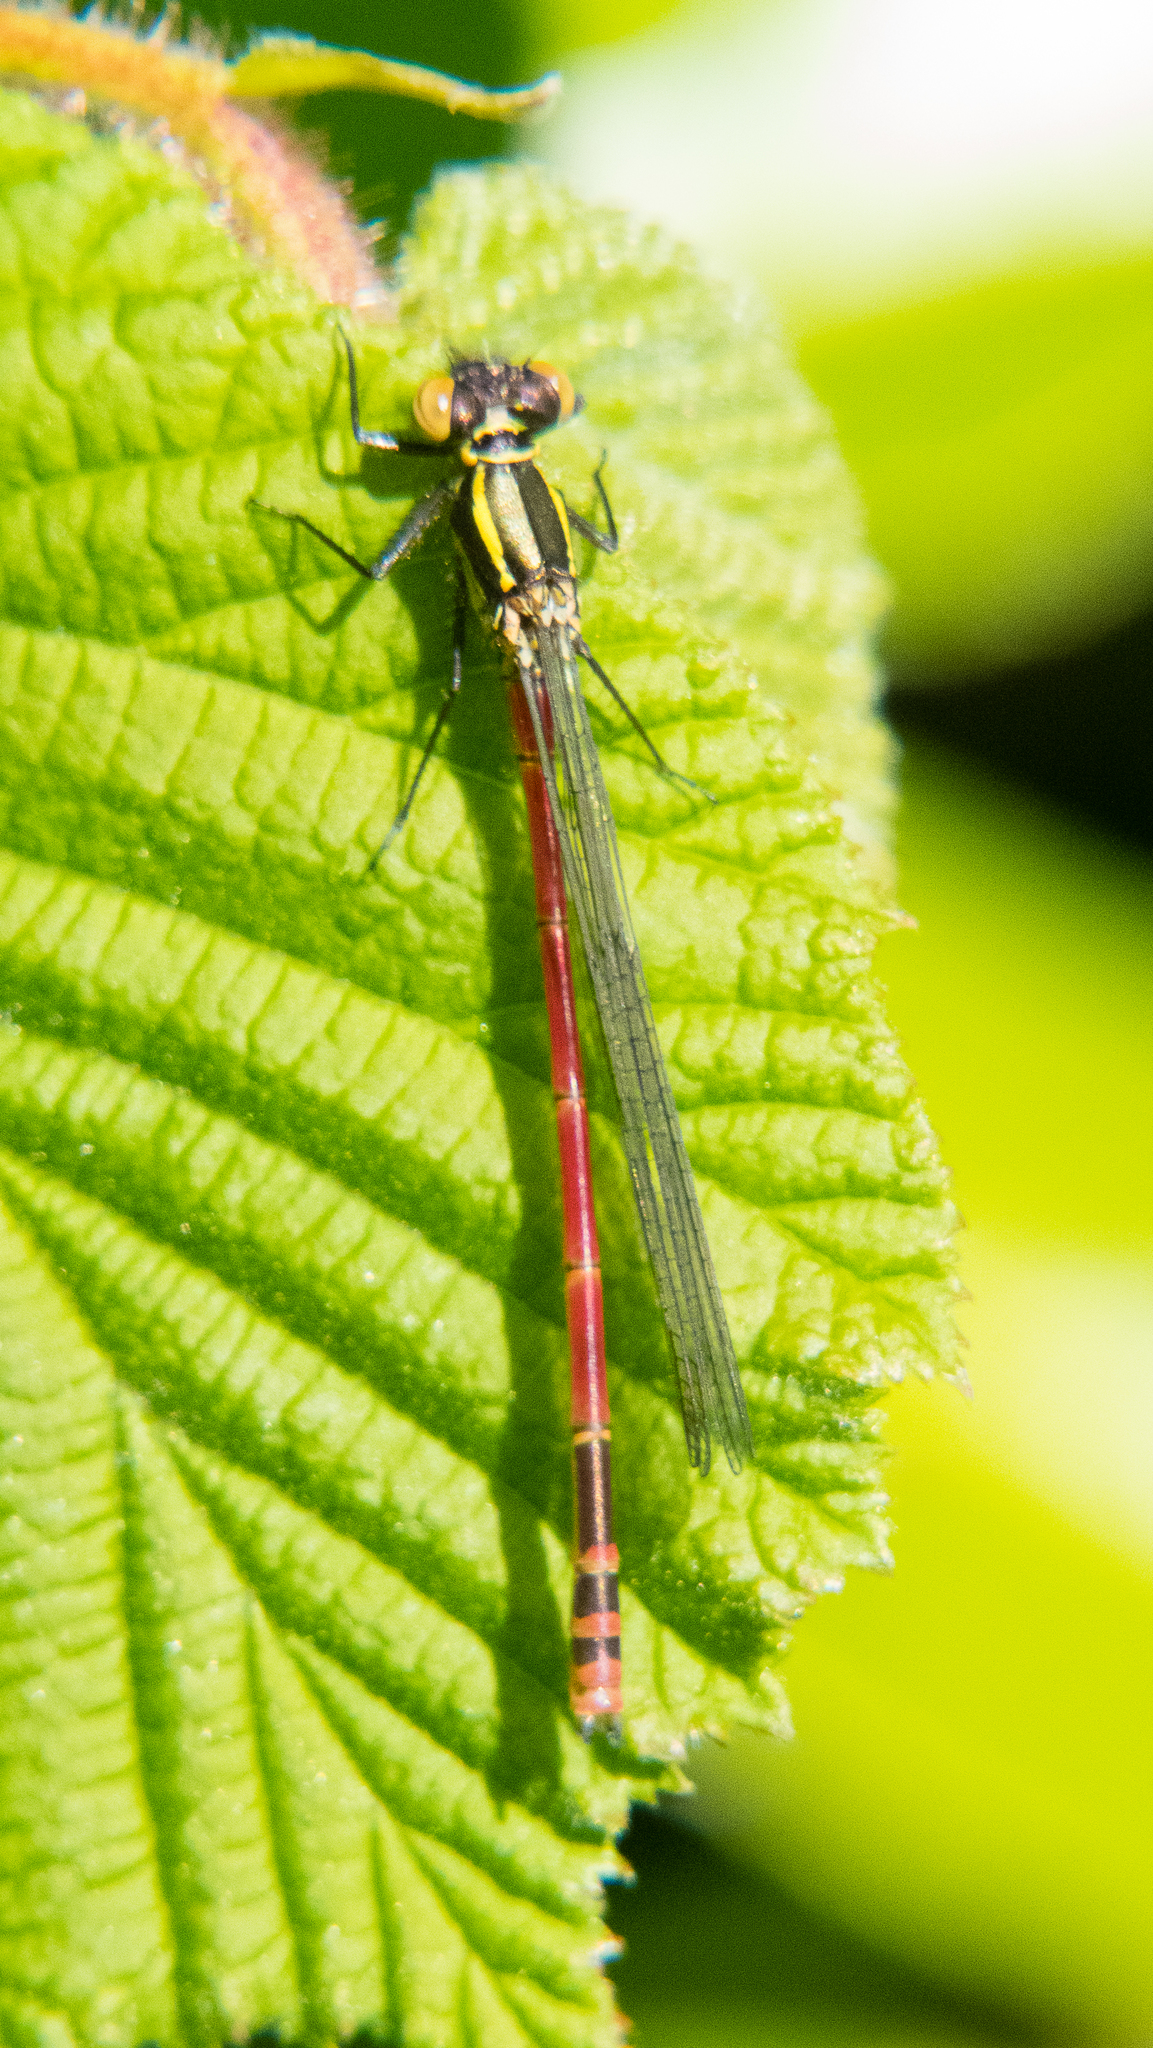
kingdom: Animalia
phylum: Arthropoda
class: Insecta
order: Odonata
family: Coenagrionidae
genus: Pyrrhosoma
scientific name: Pyrrhosoma nymphula
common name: Large red damsel
